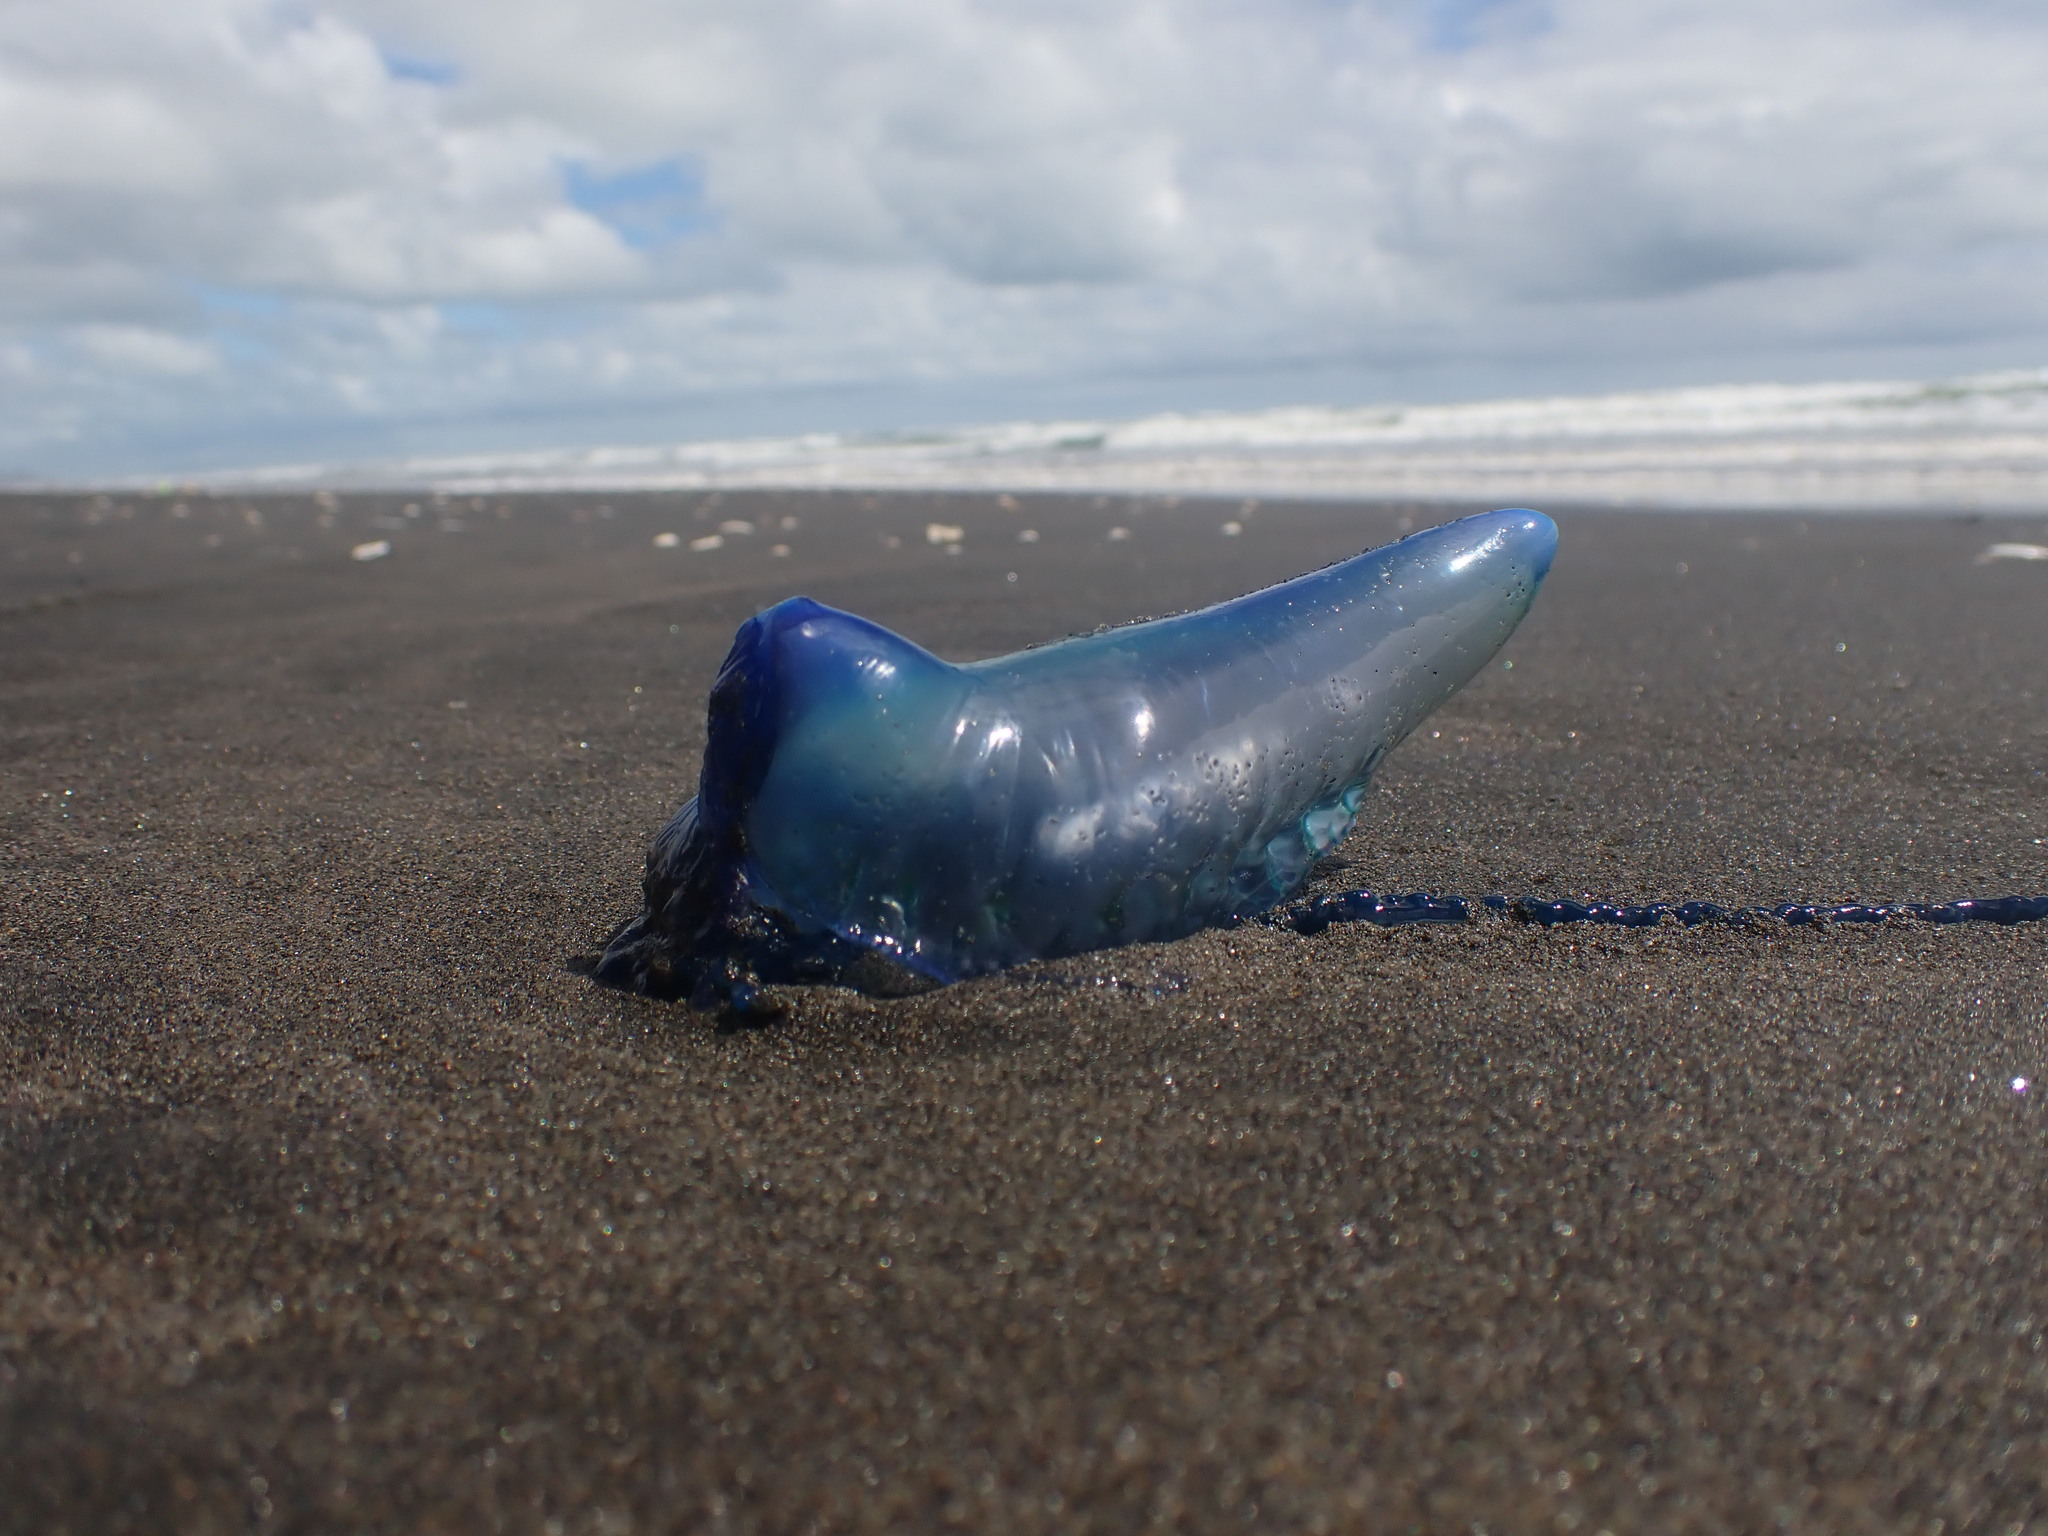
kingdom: Animalia
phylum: Cnidaria
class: Hydrozoa
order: Siphonophorae
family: Physaliidae
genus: Physalia
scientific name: Physalia physalis
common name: Portuguese man-of-war
